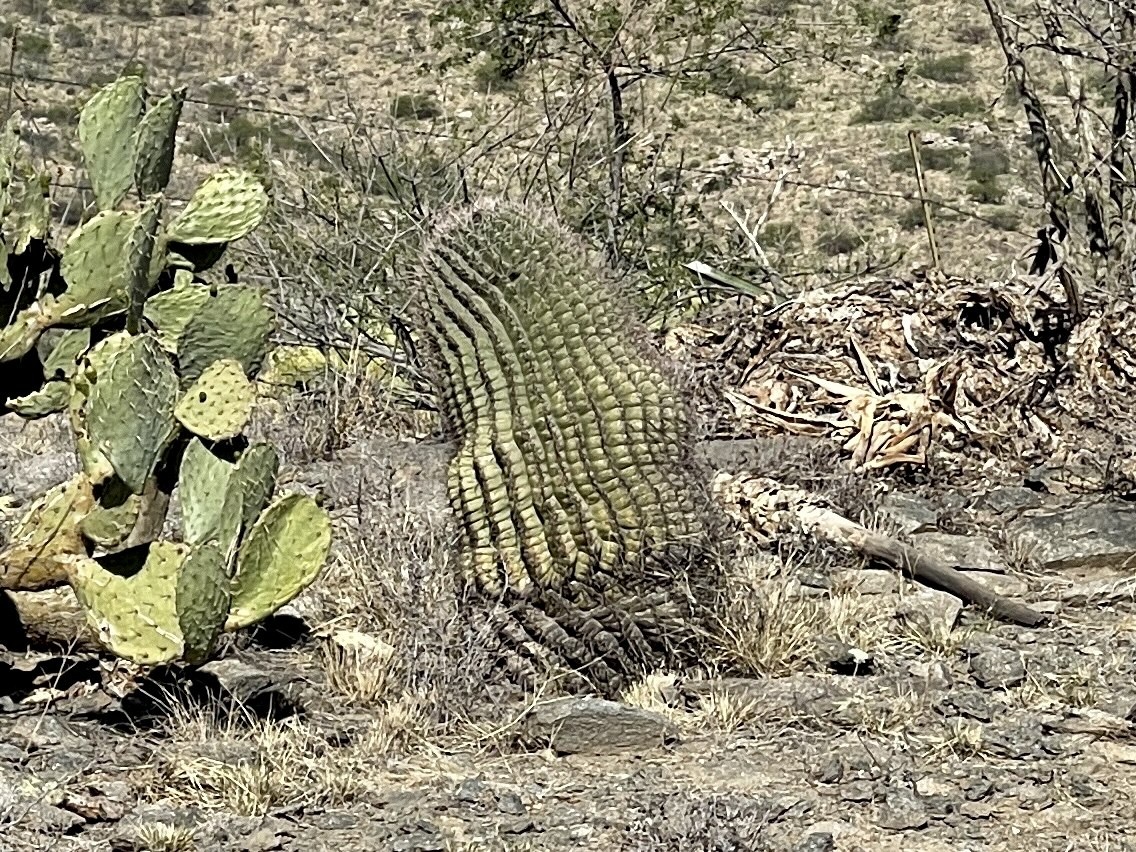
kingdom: Plantae
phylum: Tracheophyta
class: Magnoliopsida
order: Caryophyllales
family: Cactaceae
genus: Ferocactus
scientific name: Ferocactus wislizeni
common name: Candy barrel cactus
